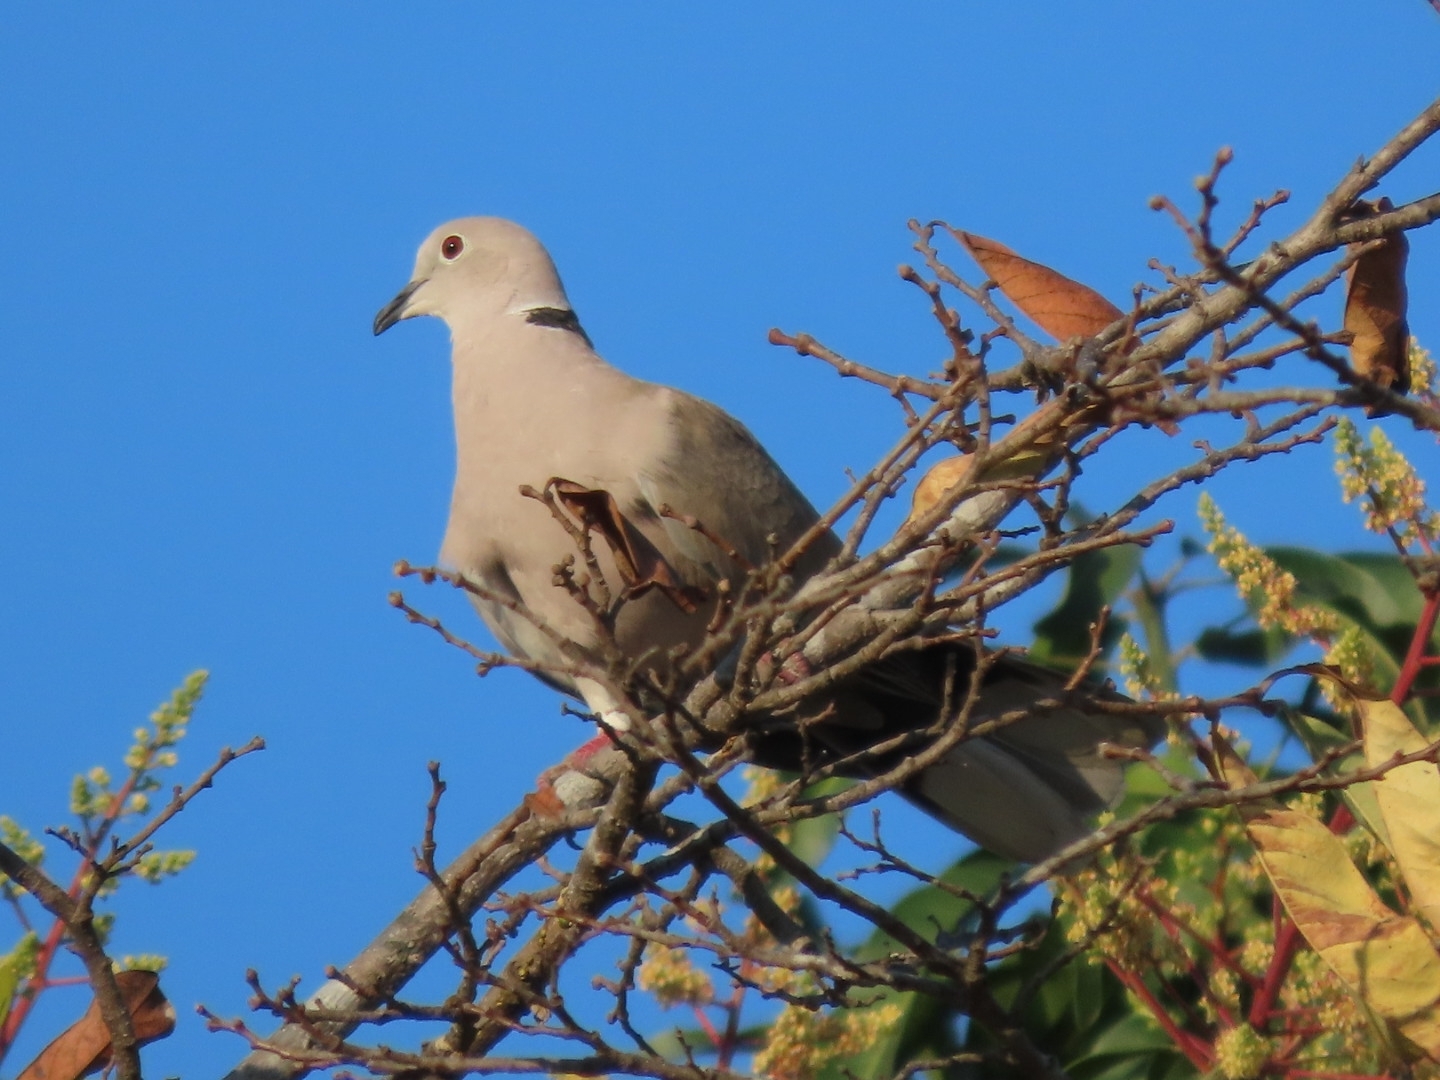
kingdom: Animalia
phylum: Chordata
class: Aves
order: Columbiformes
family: Columbidae
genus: Streptopelia
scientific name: Streptopelia decaocto
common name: Eurasian collared dove
